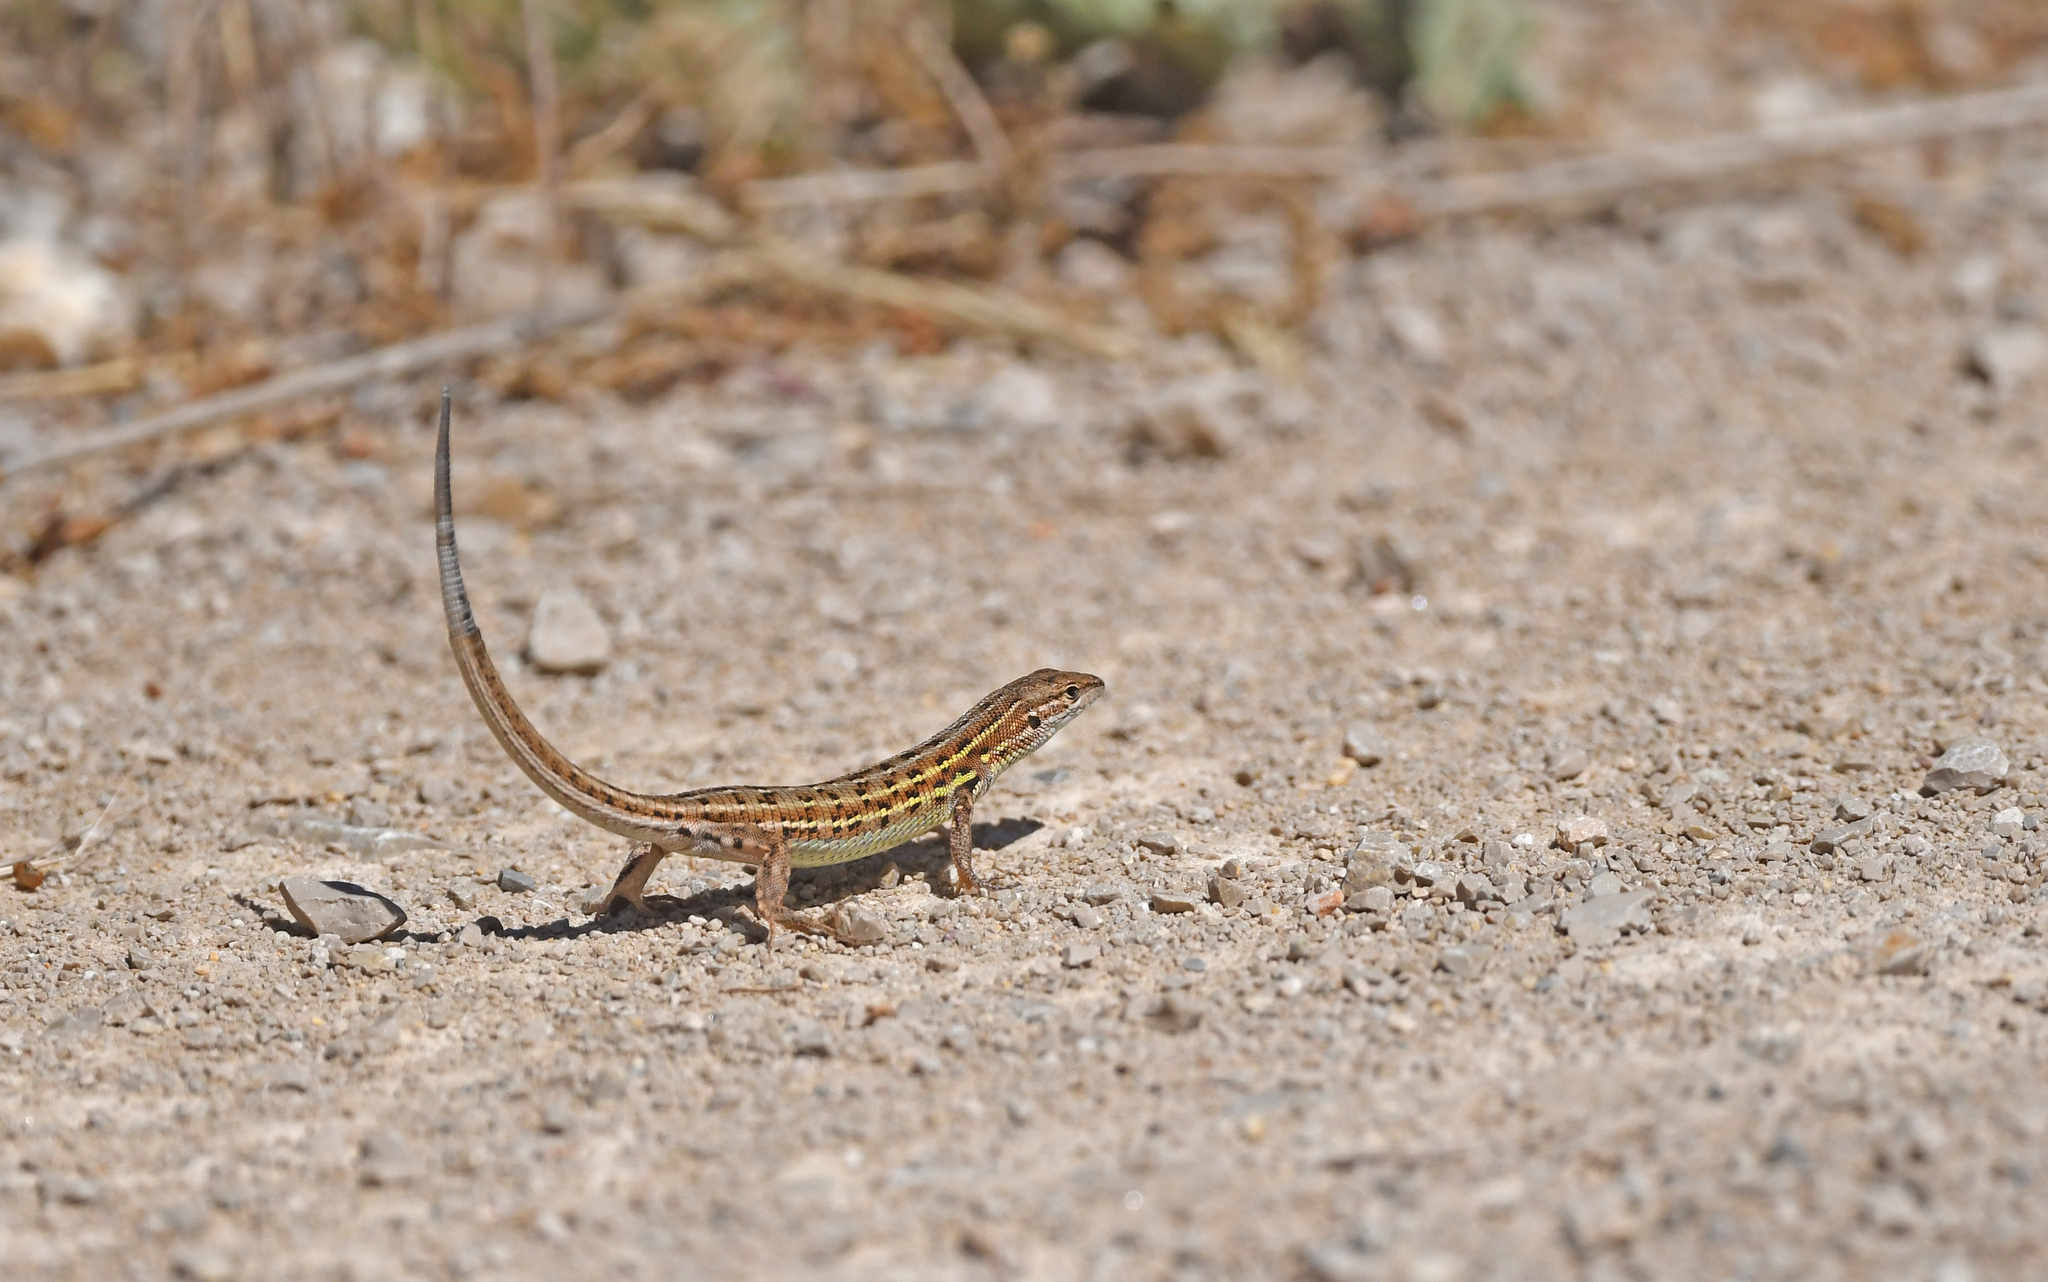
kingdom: Animalia
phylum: Chordata
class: Squamata
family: Lacertidae
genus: Psammodromus
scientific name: Psammodromus edwarsianus
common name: East iberian psammodromus
